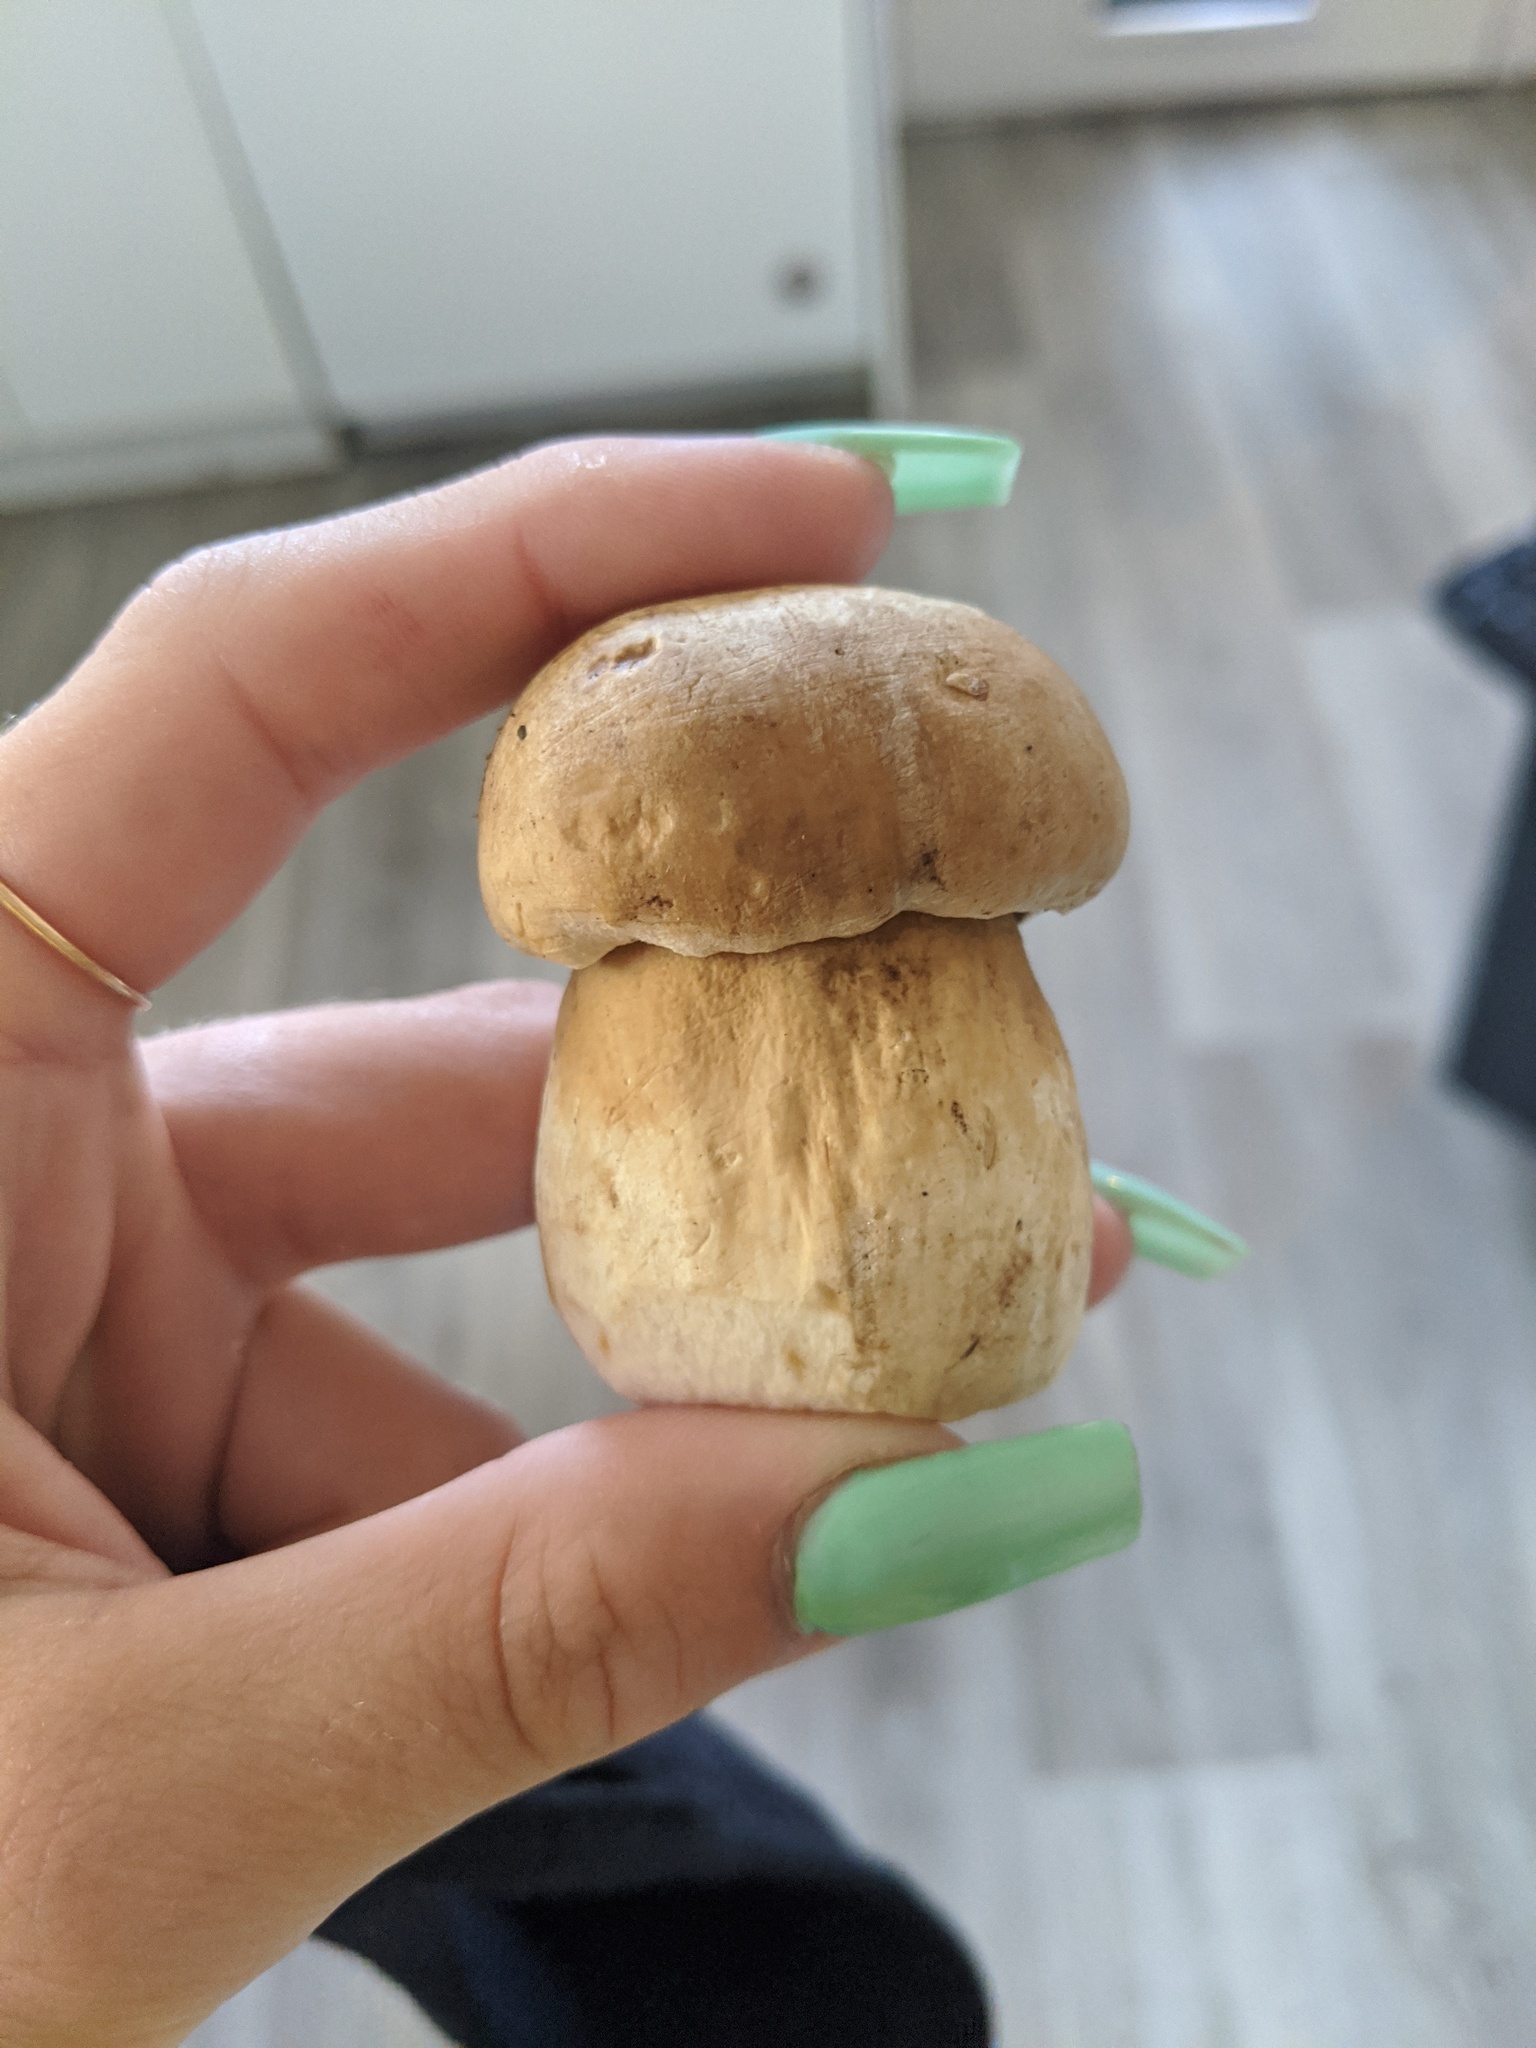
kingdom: Fungi
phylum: Basidiomycota
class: Agaricomycetes
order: Boletales
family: Boletaceae
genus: Boletus
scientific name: Boletus edulis
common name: Cep
